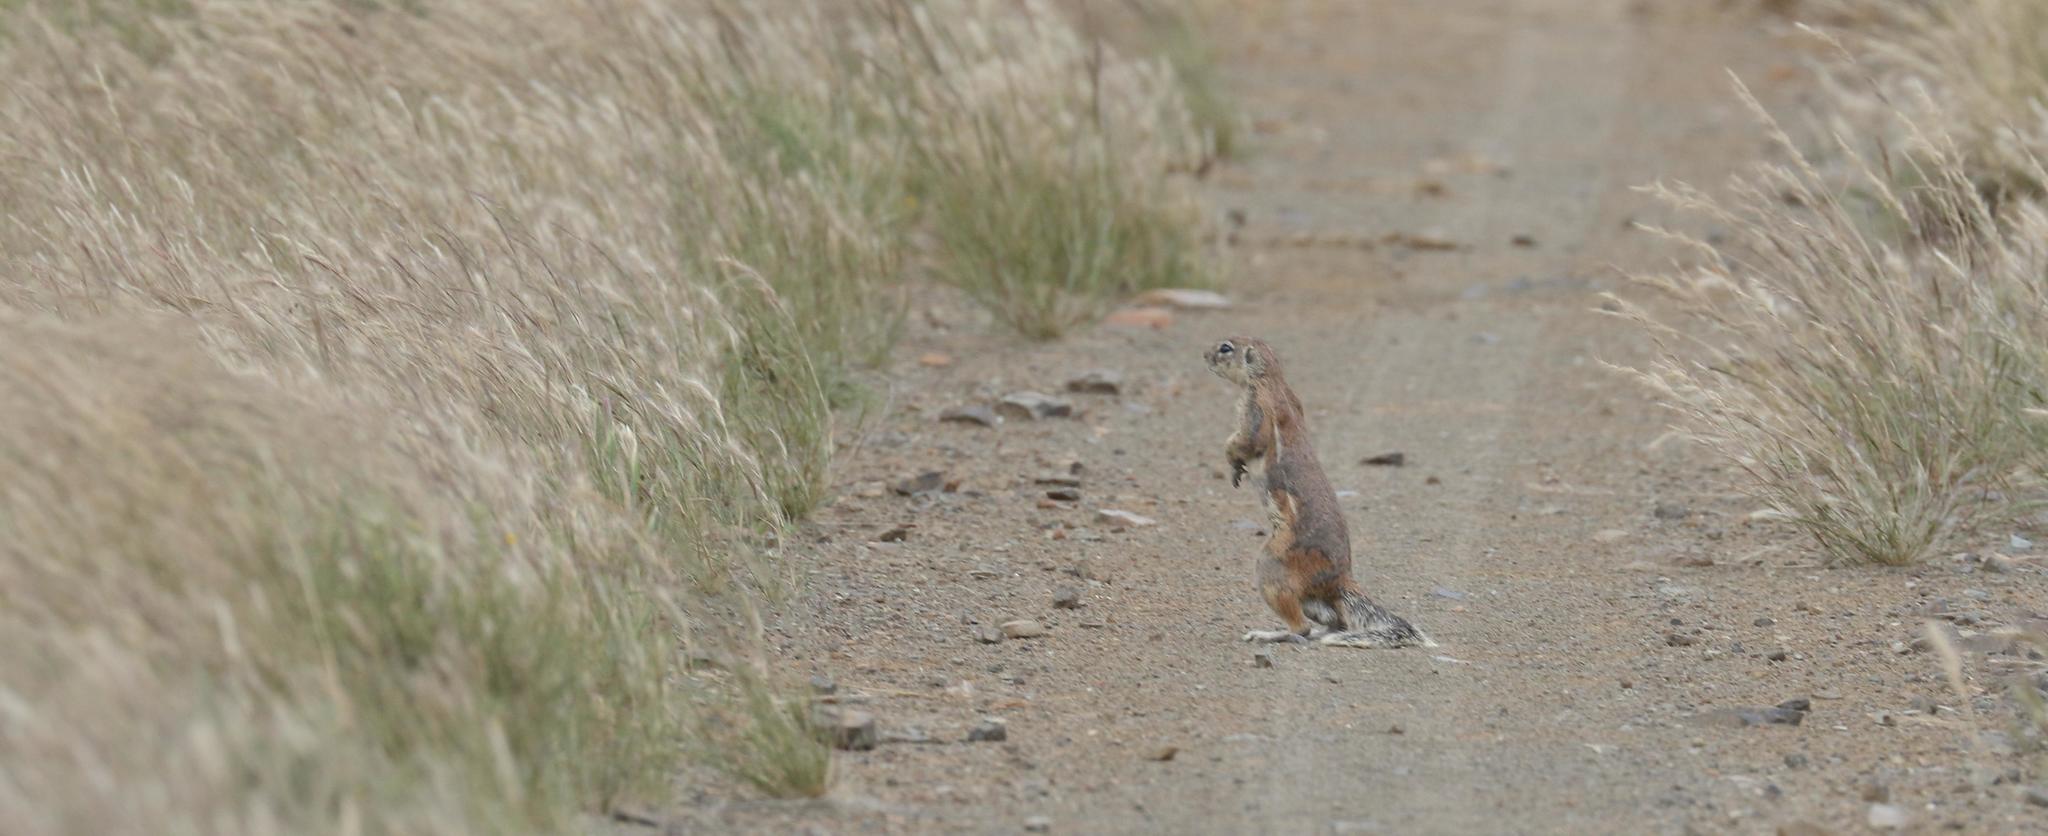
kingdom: Animalia
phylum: Chordata
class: Mammalia
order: Rodentia
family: Sciuridae
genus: Xerus
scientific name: Xerus inauris
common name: South african ground squirrel
